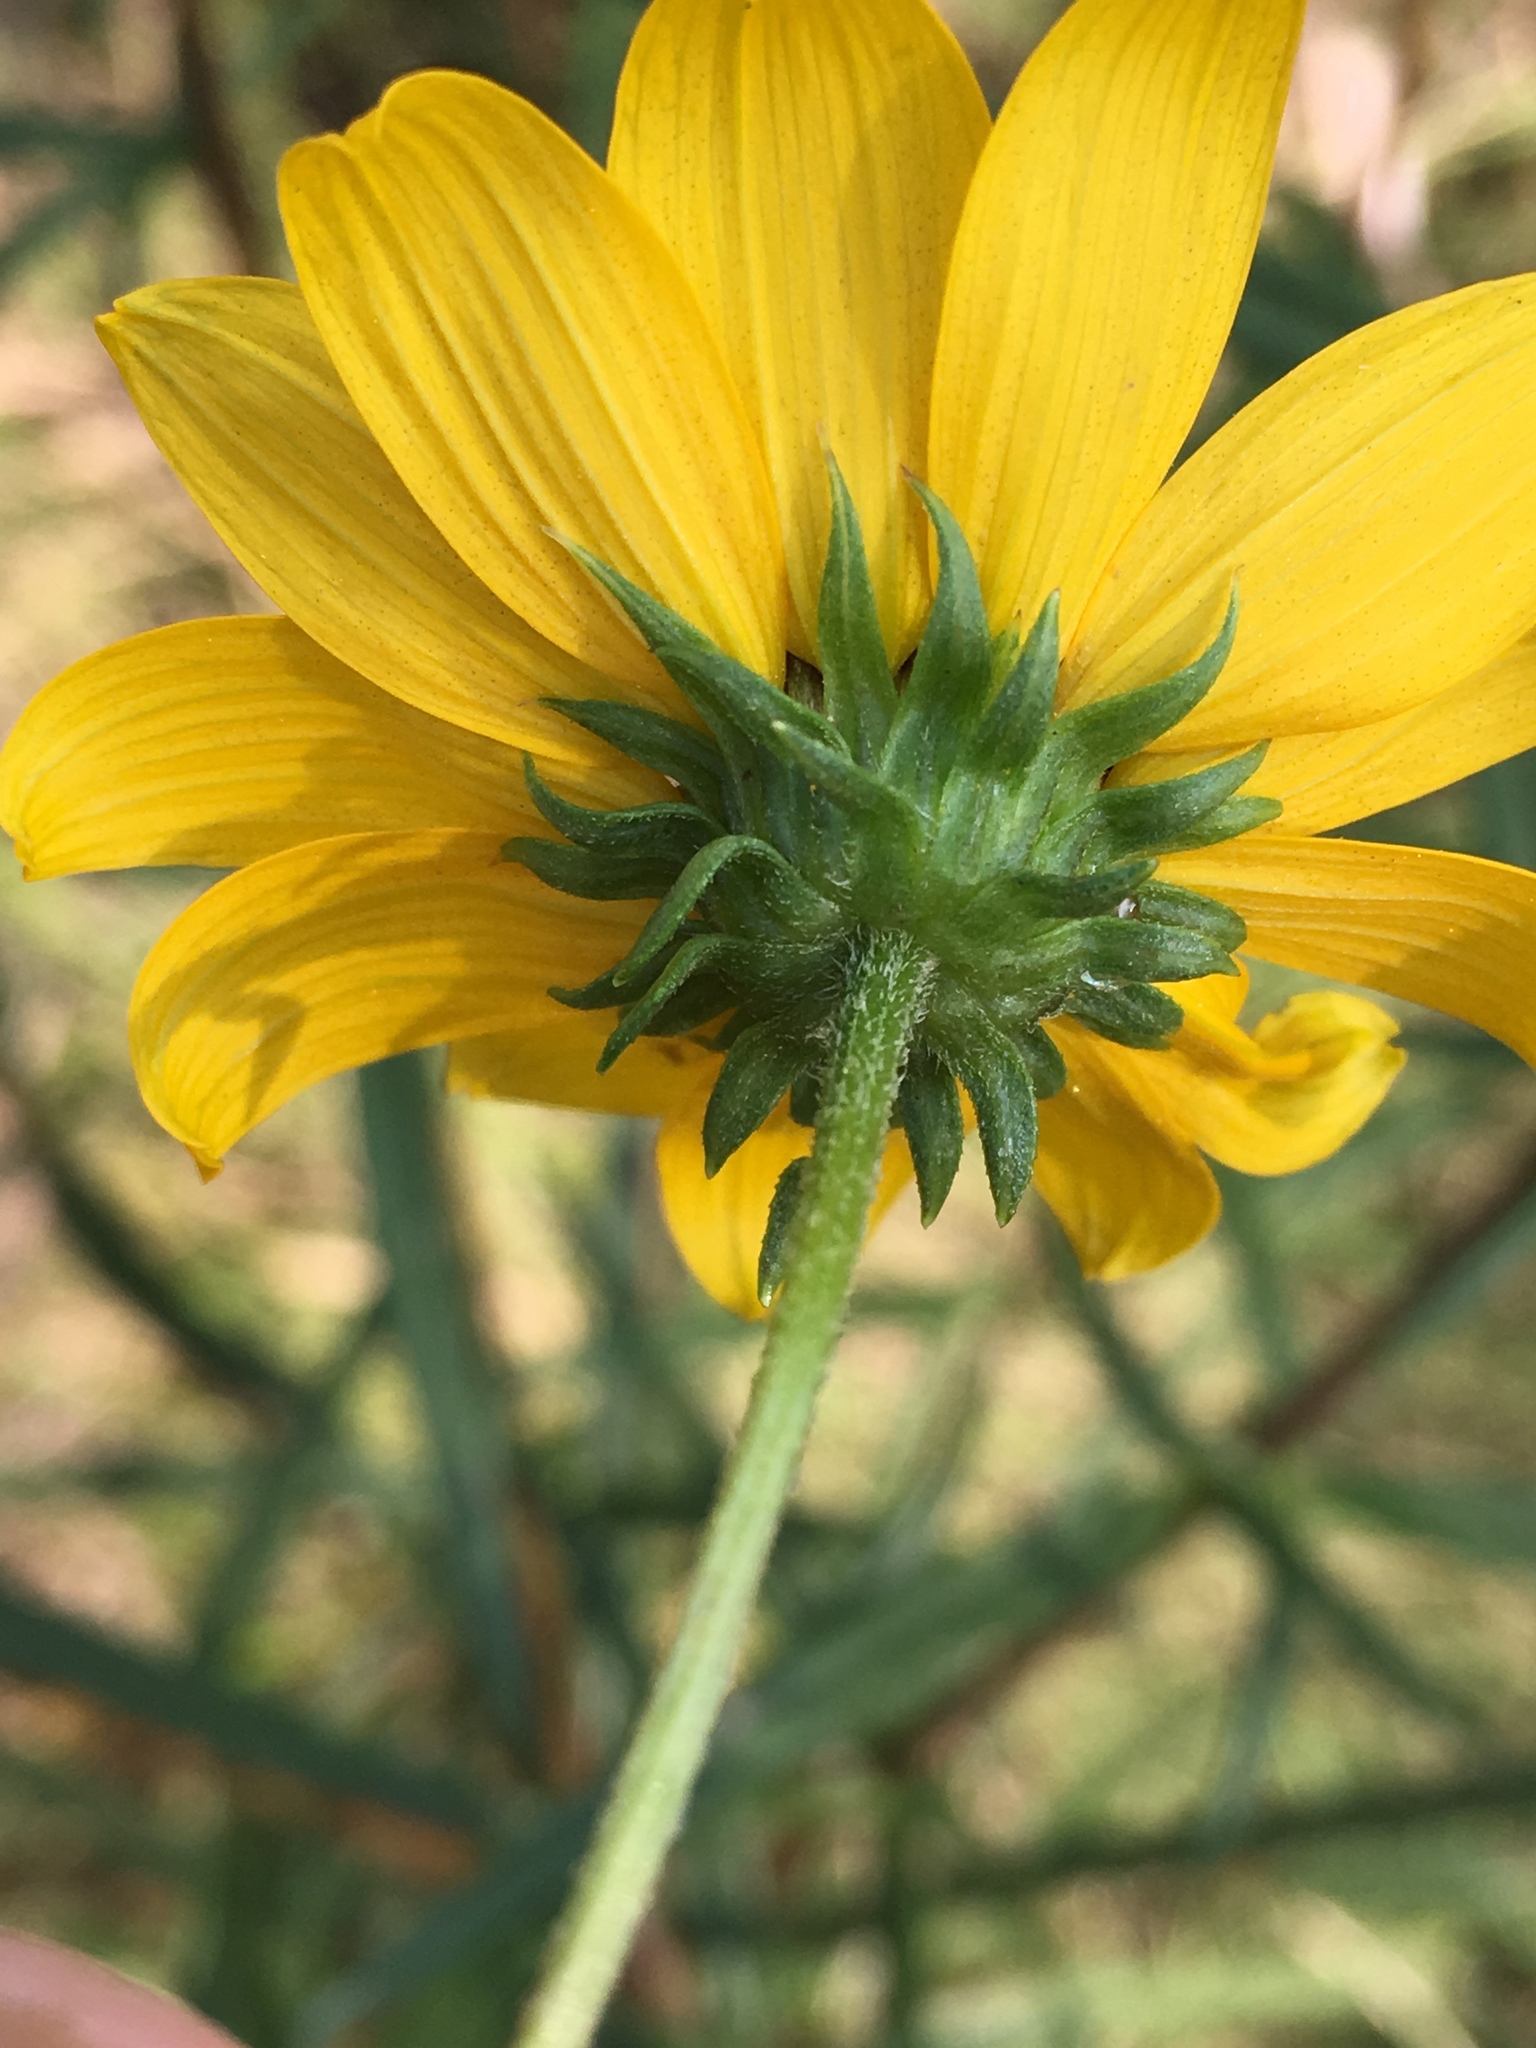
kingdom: Plantae
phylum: Tracheophyta
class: Magnoliopsida
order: Asterales
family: Asteraceae
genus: Helianthus
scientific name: Helianthus angustifolius
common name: Swamp sunflower
